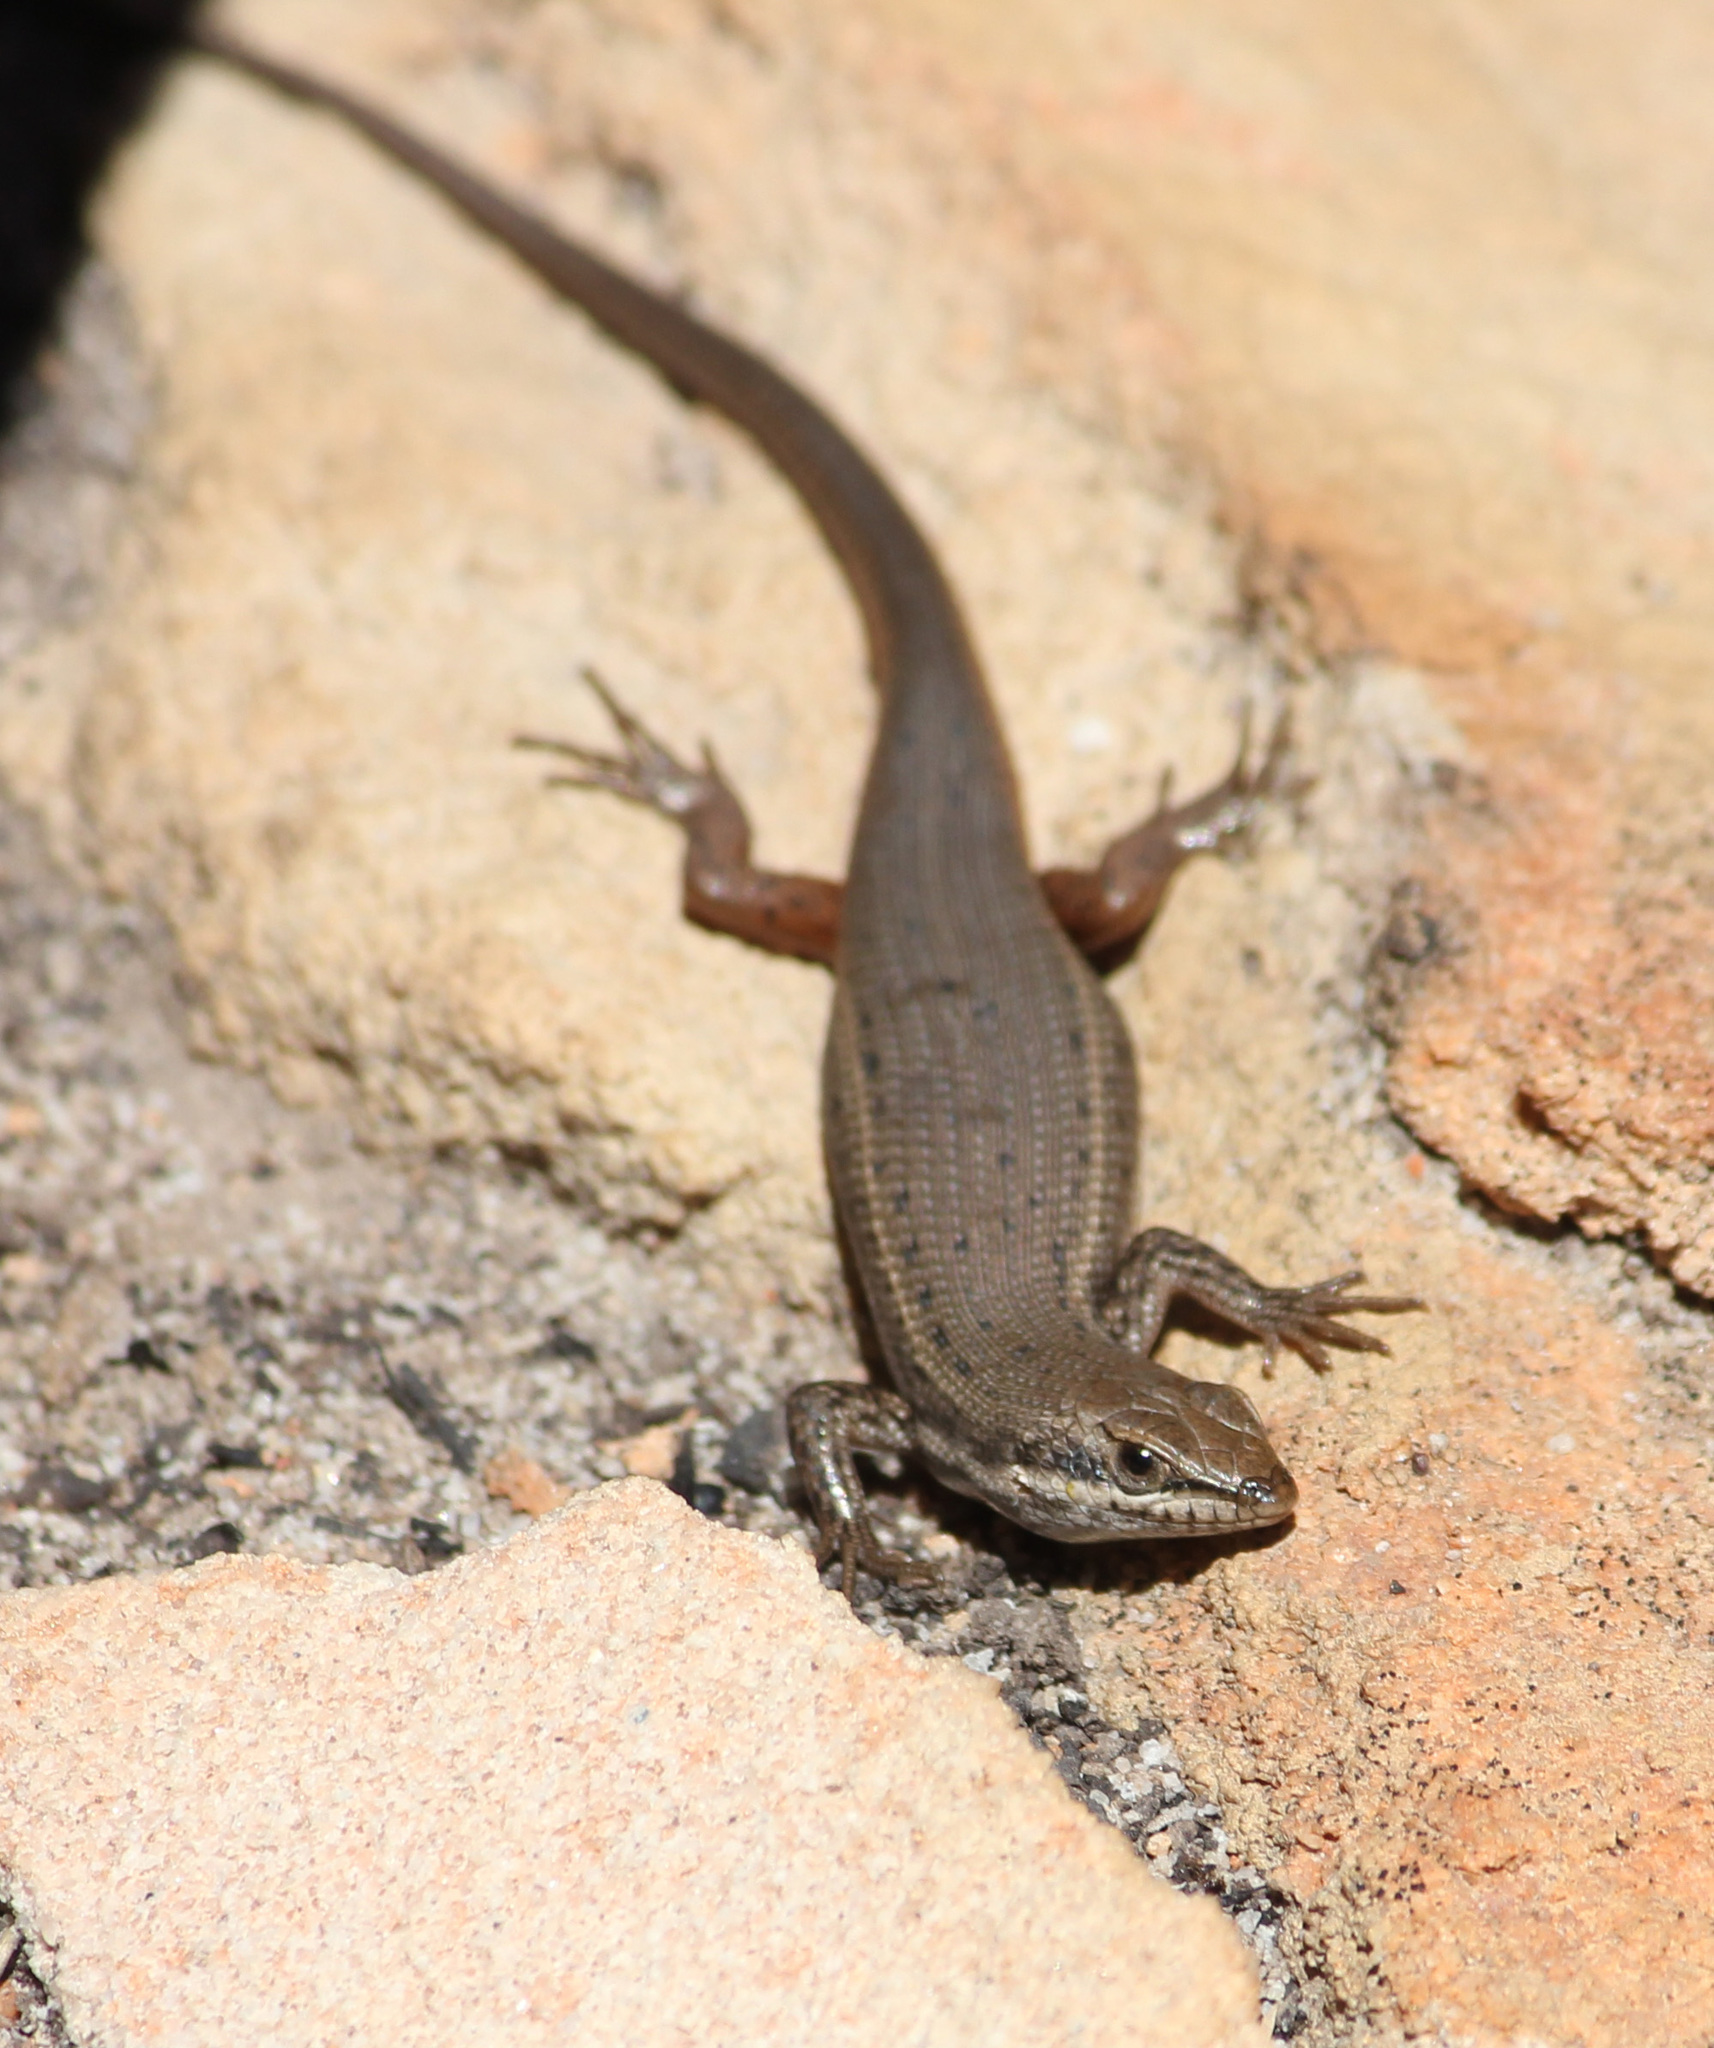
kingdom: Animalia
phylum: Chordata
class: Squamata
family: Scincidae
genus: Trachylepis
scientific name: Trachylepis variegata
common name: Variegated skink
